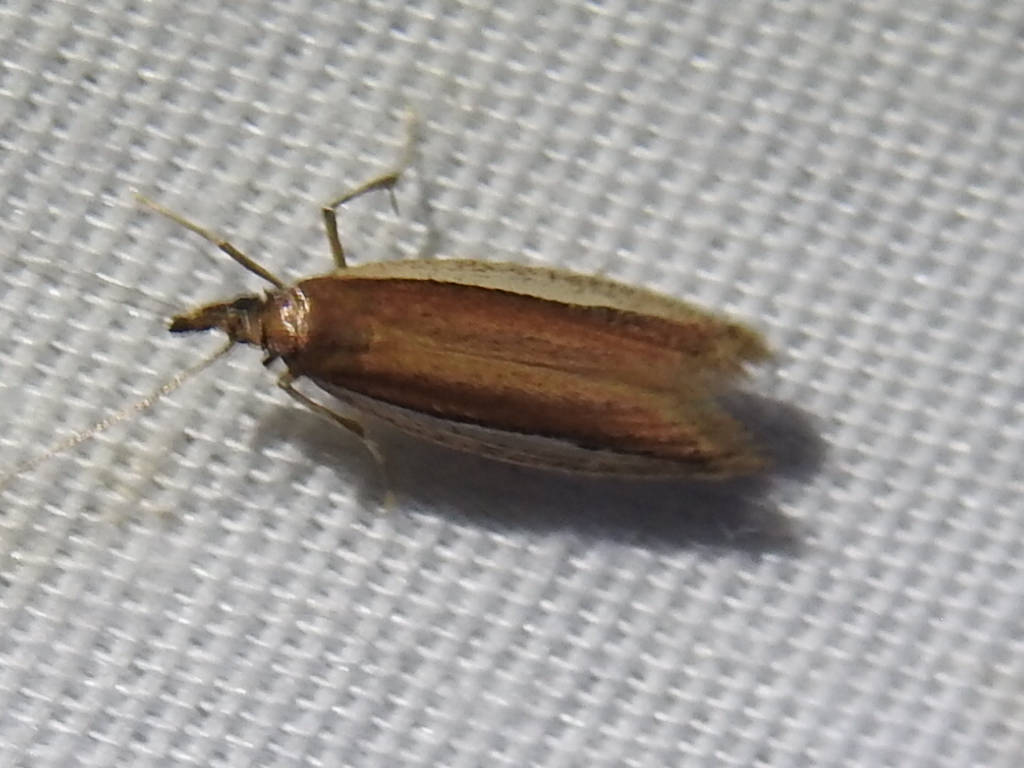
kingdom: Animalia
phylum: Arthropoda
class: Insecta
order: Lepidoptera
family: Pyralidae
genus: Tampa
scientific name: Tampa dimediatella
